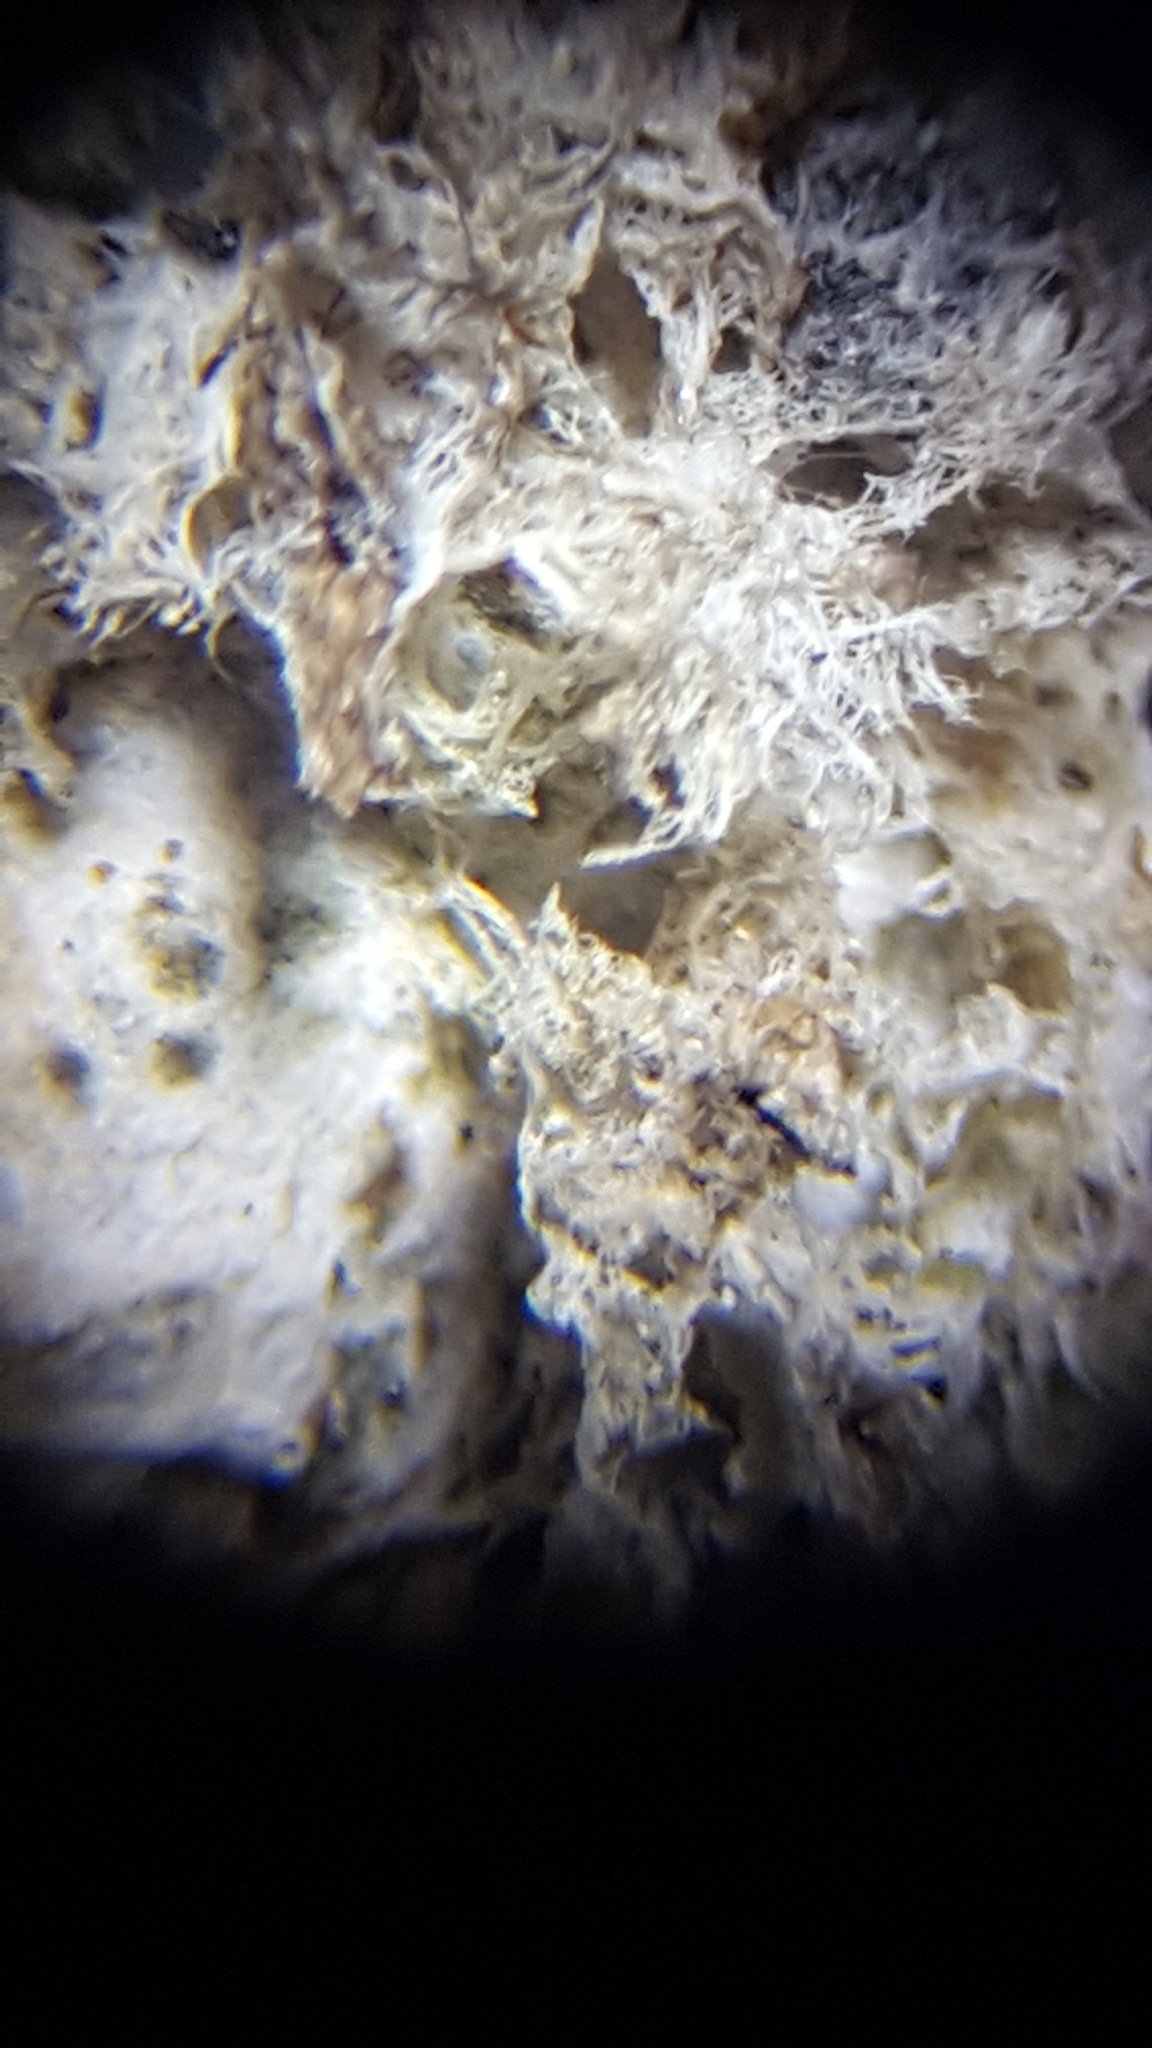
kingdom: Fungi
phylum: Ascomycota
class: Lecanoromycetes
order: Peltigerales
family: Peltigeraceae
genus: Peltigera
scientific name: Peltigera extenuata
